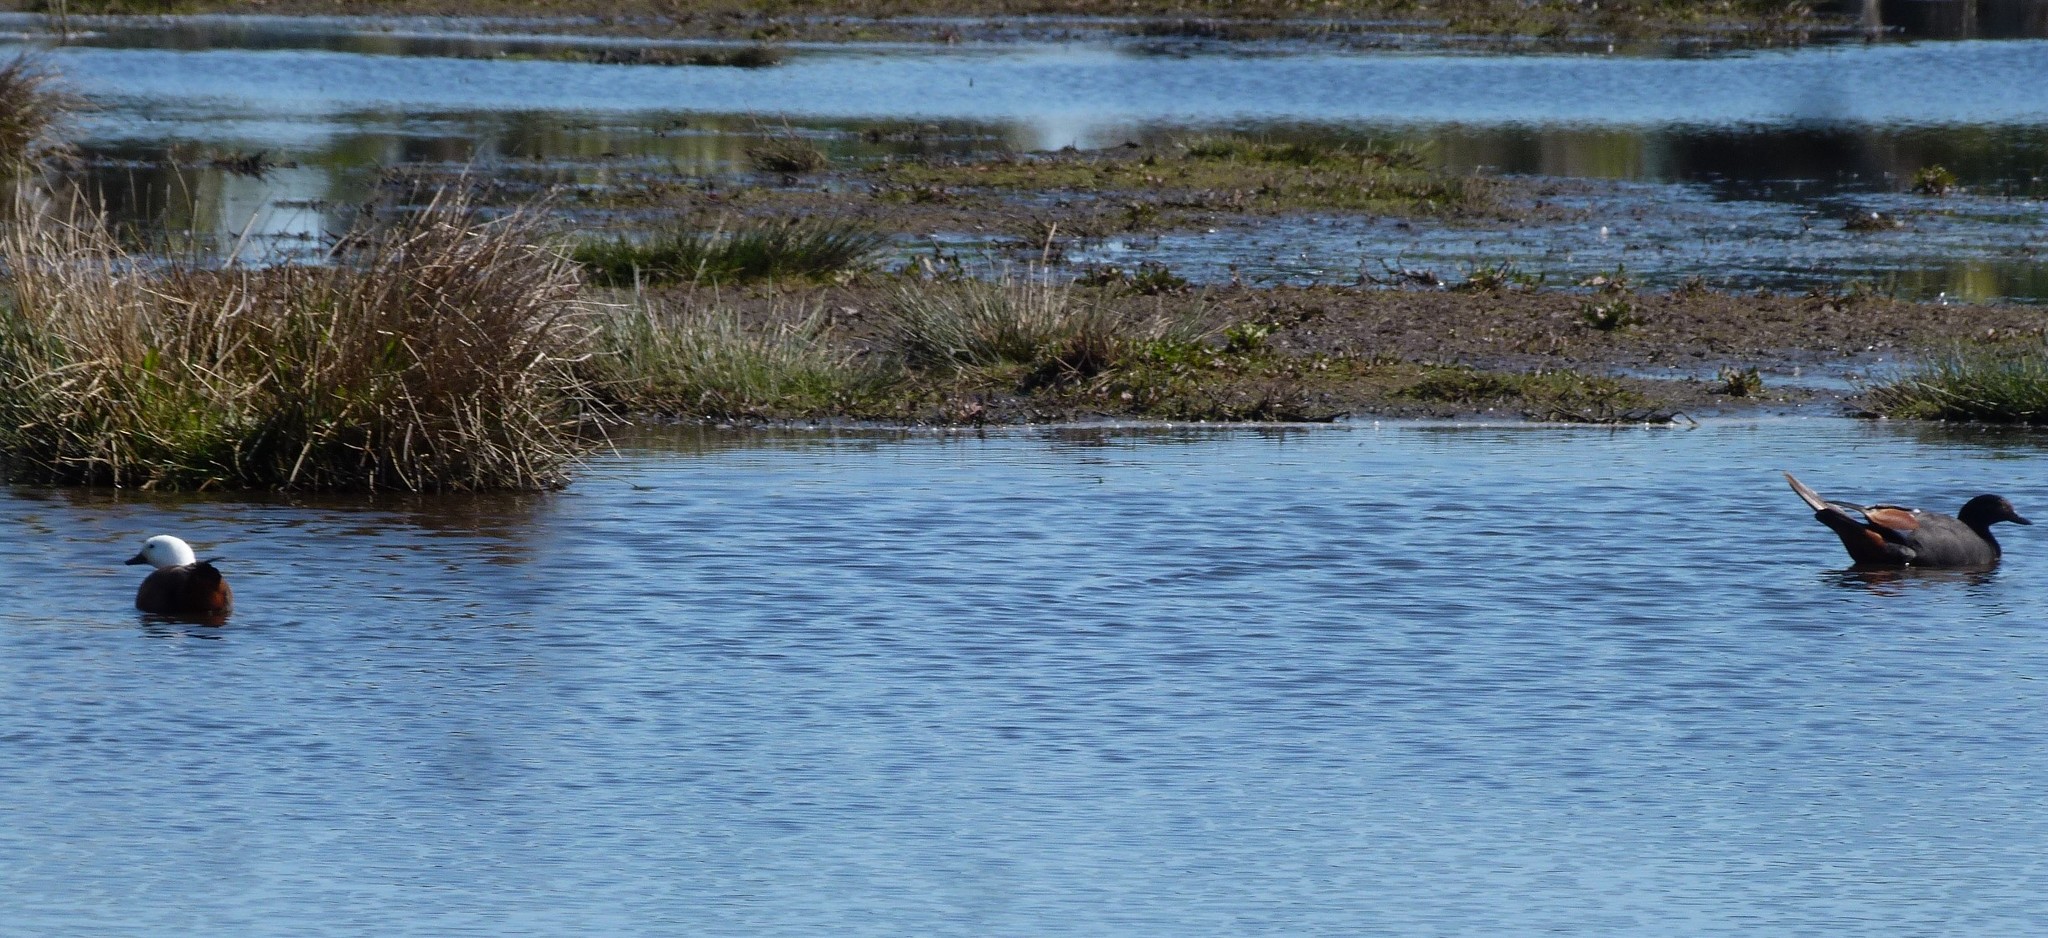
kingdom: Animalia
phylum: Chordata
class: Aves
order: Anseriformes
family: Anatidae
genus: Tadorna
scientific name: Tadorna variegata
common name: Paradise shelduck
